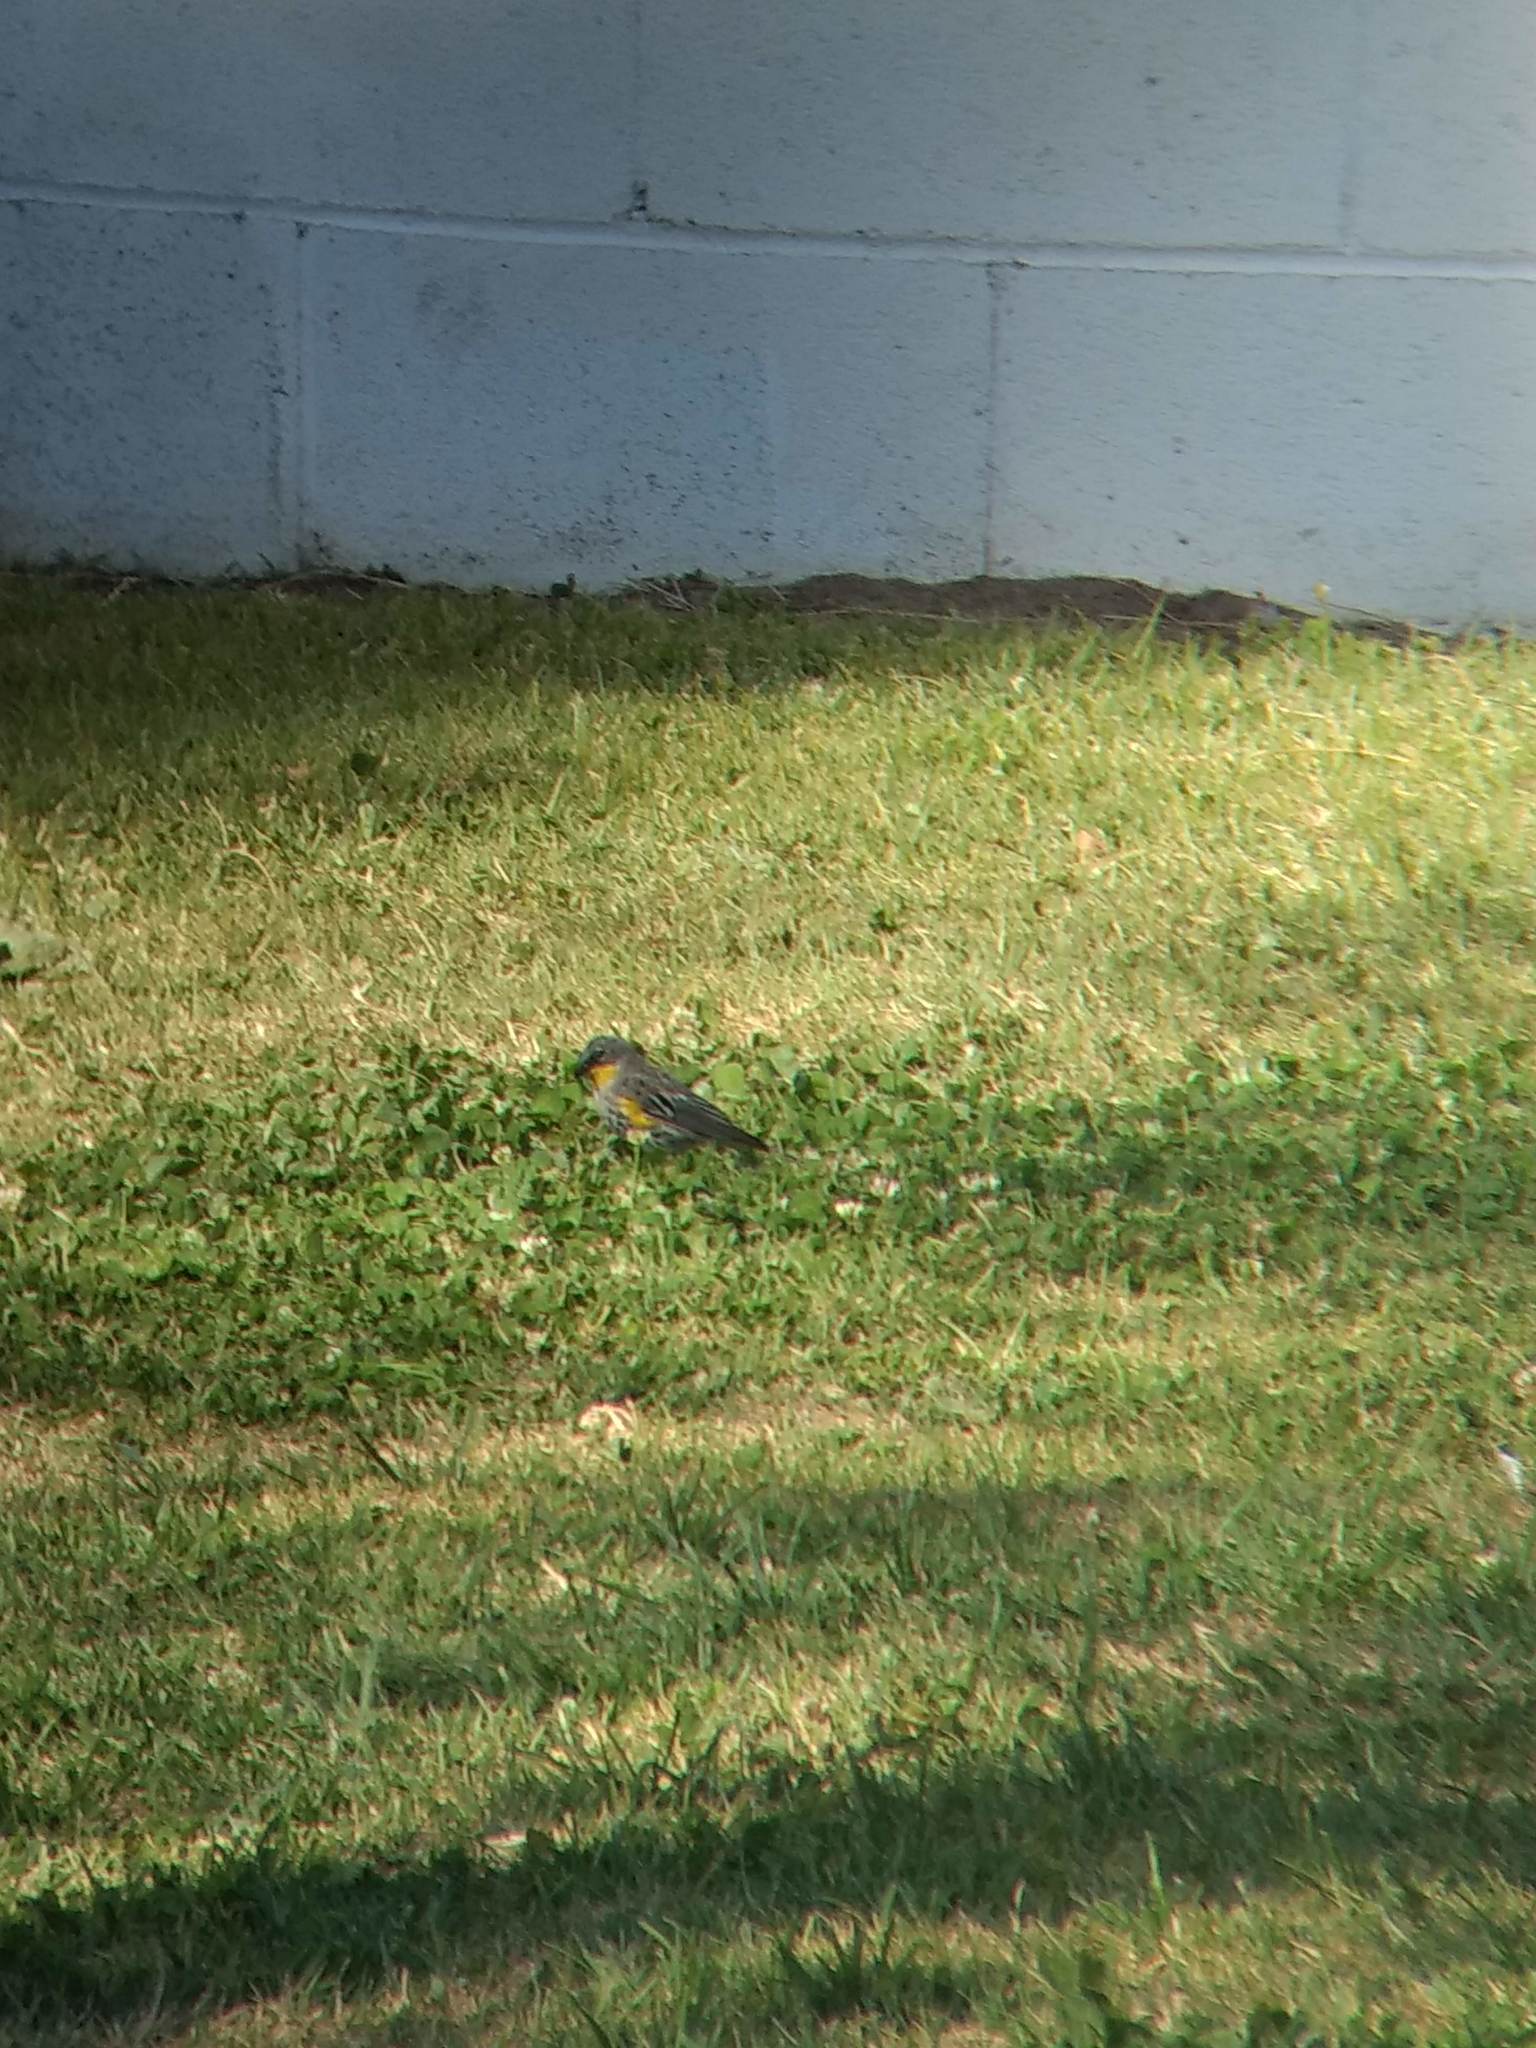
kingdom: Animalia
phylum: Chordata
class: Aves
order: Passeriformes
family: Parulidae
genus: Setophaga
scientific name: Setophaga coronata
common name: Myrtle warbler
